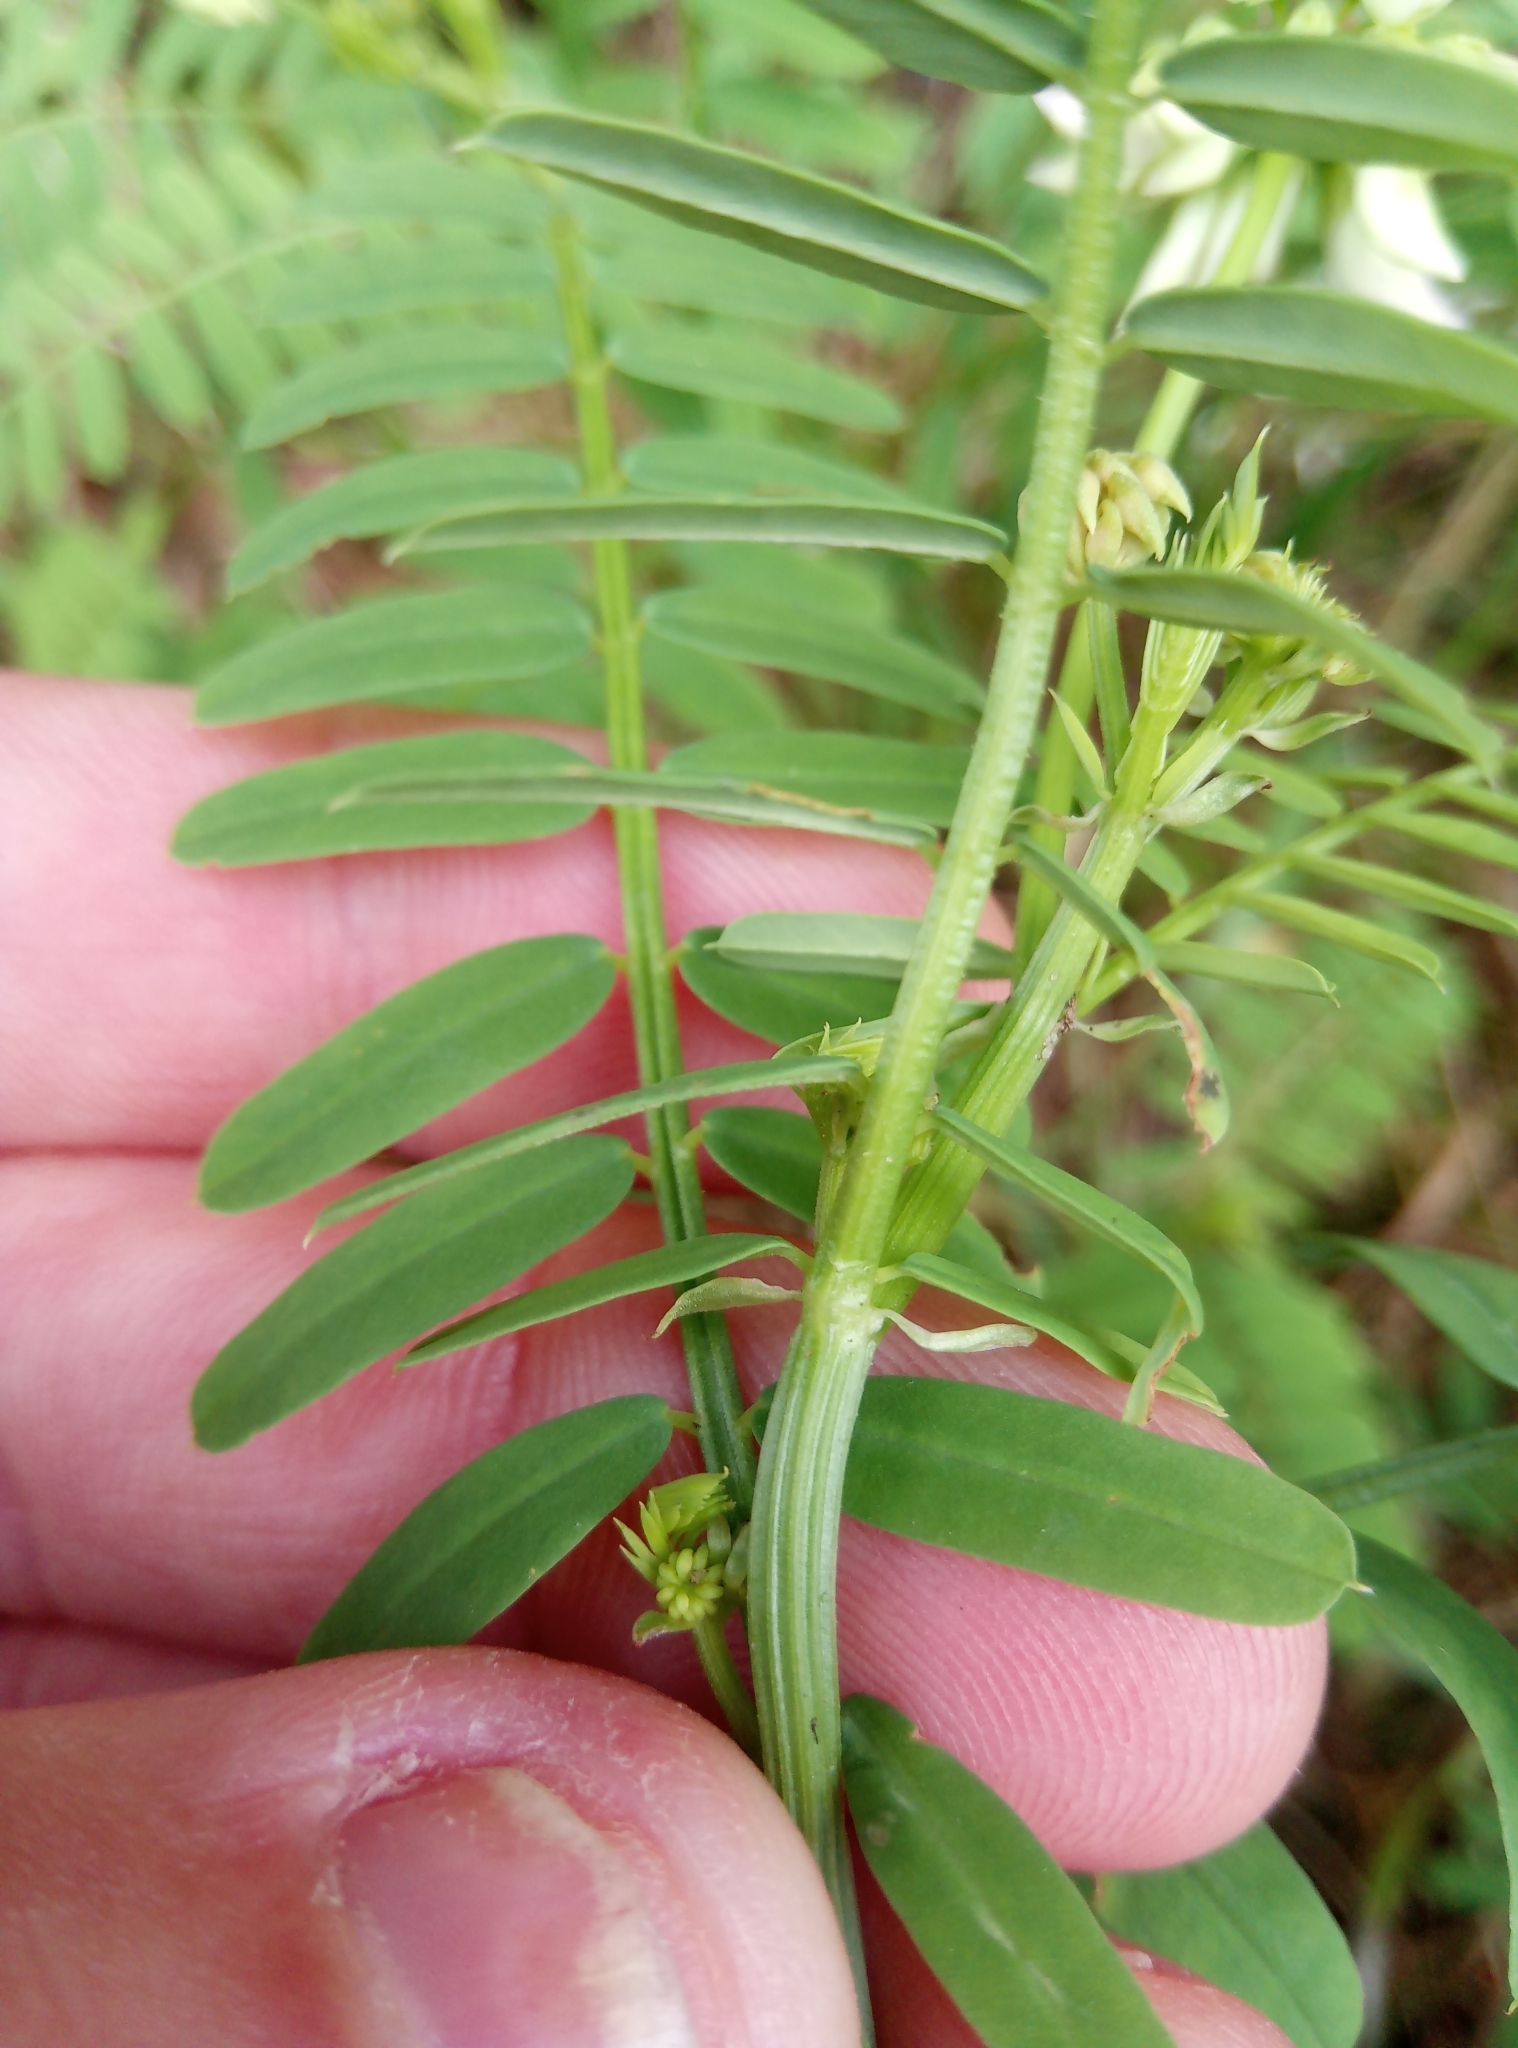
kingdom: Plantae
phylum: Tracheophyta
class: Magnoliopsida
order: Fabales
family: Fabaceae
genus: Coronilla
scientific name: Coronilla varia
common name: Crownvetch
